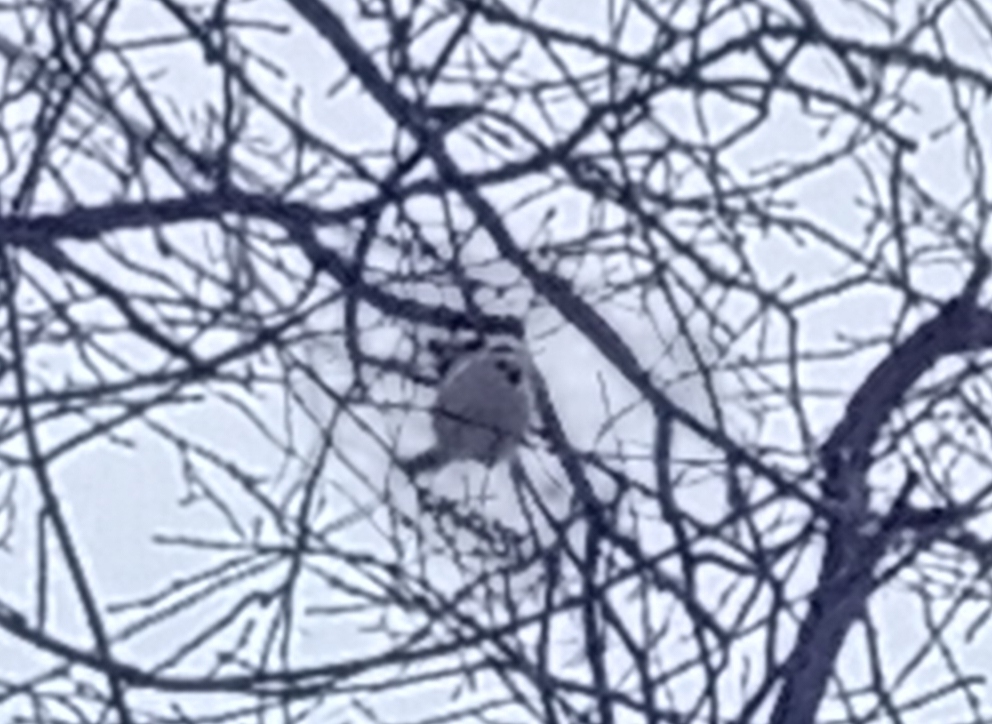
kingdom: Animalia
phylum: Chordata
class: Aves
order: Passeriformes
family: Aegithalidae
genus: Aegithalos
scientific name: Aegithalos caudatus
